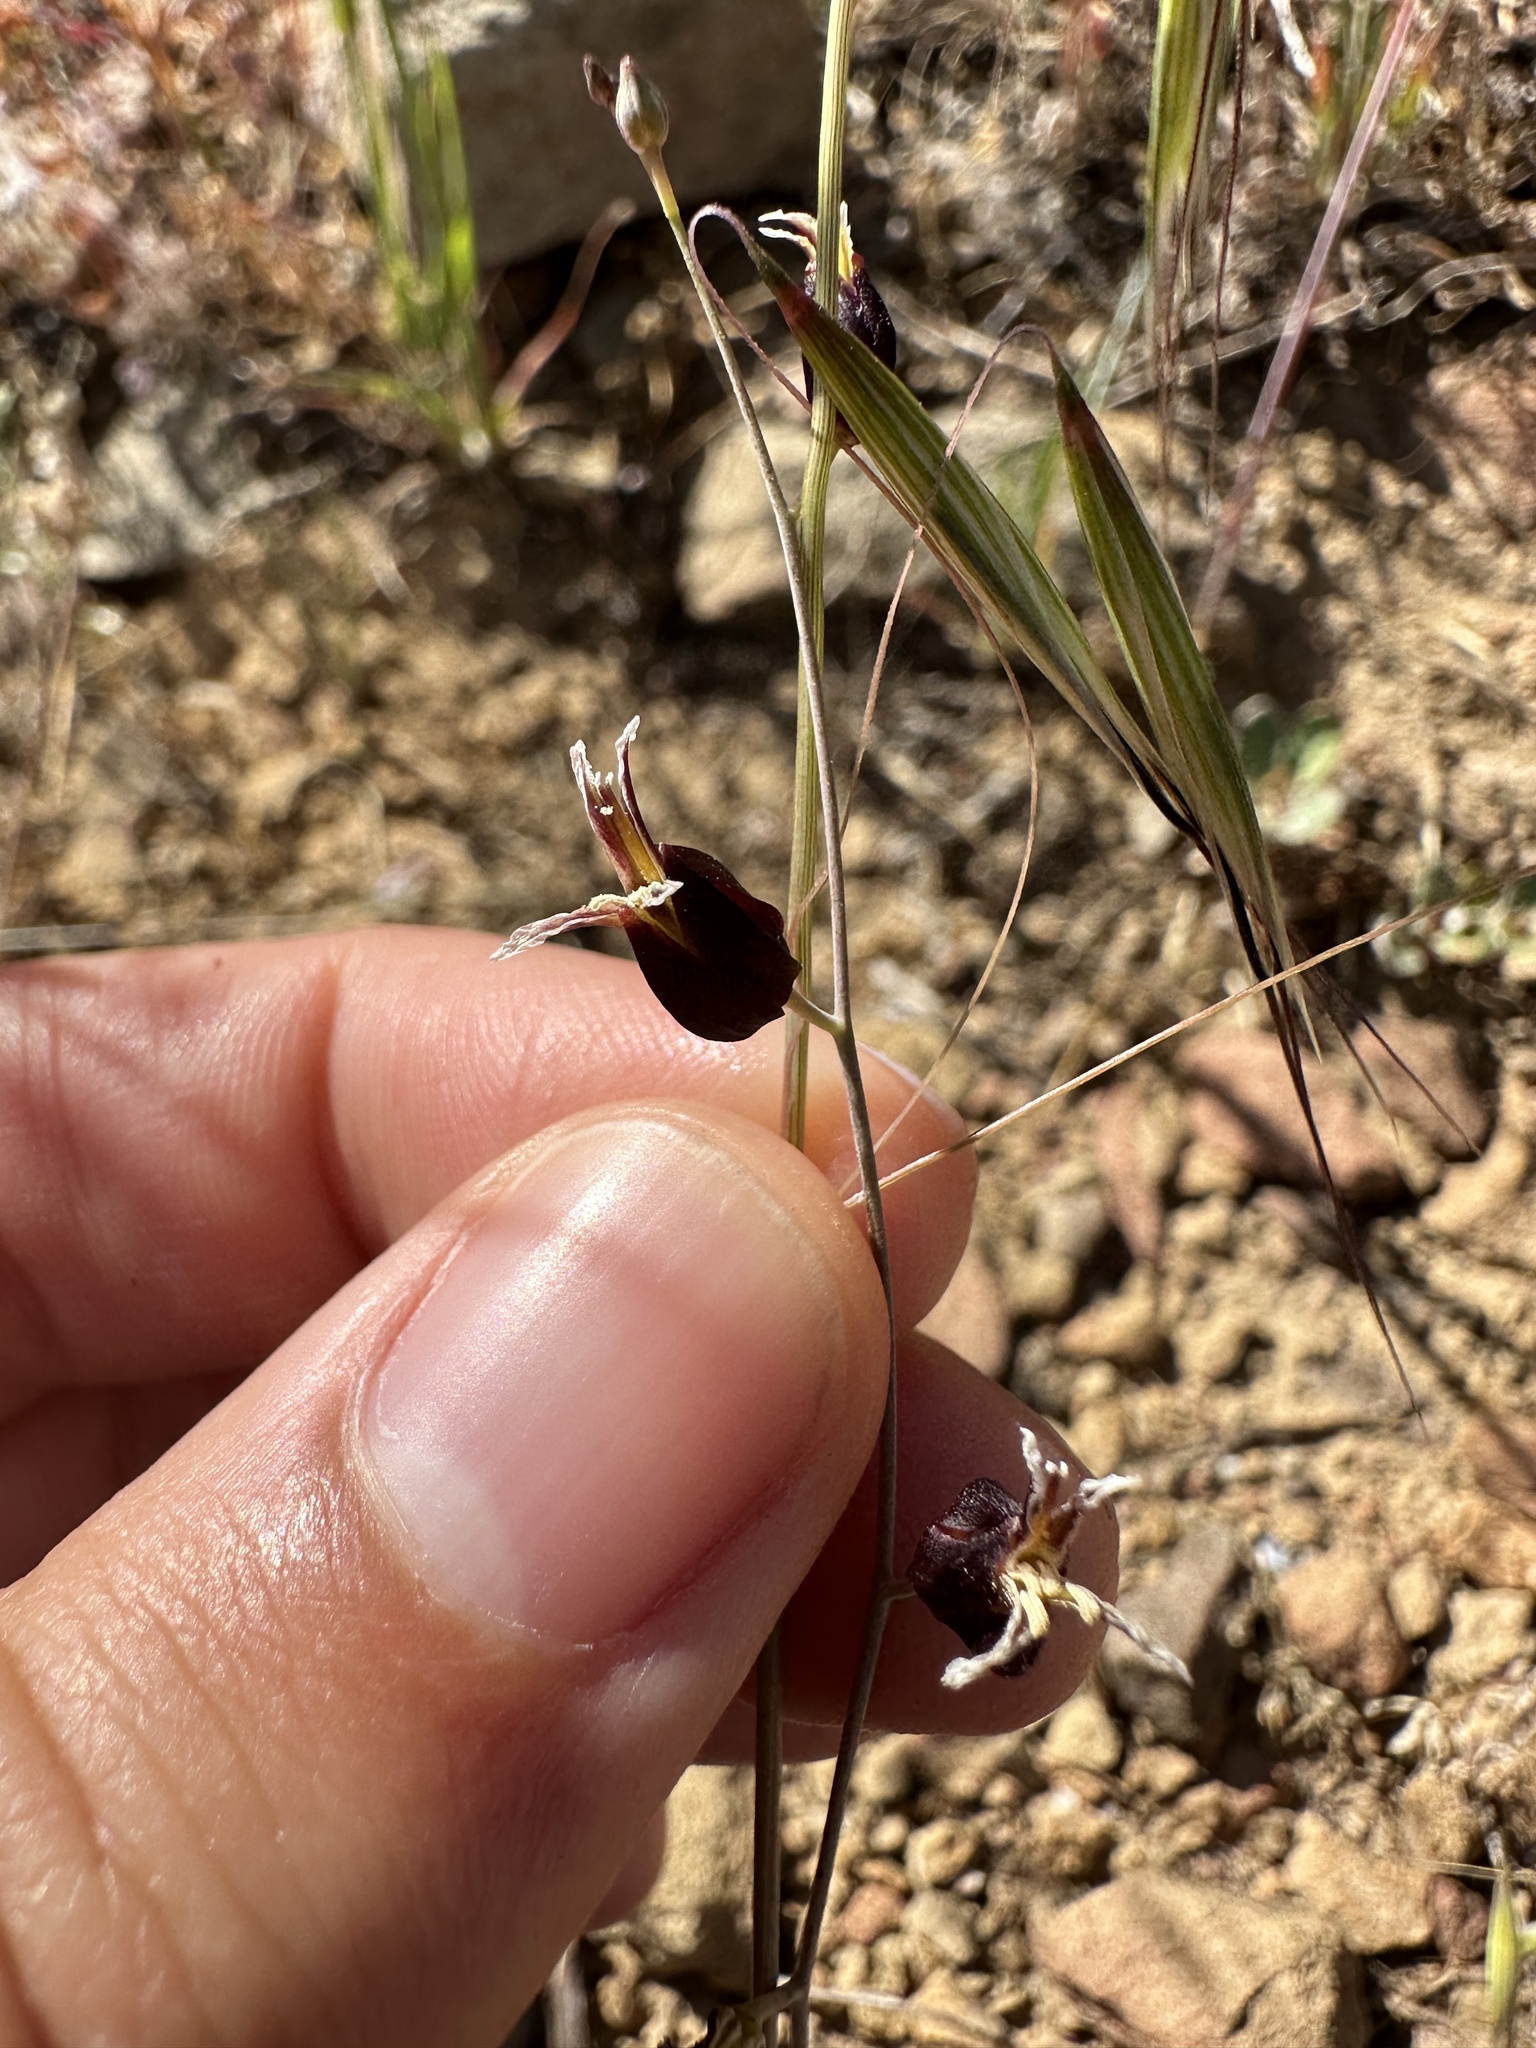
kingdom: Plantae
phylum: Tracheophyta
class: Magnoliopsida
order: Brassicales
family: Brassicaceae
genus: Streptanthus
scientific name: Streptanthus glandulosus
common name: Jewel-flower
